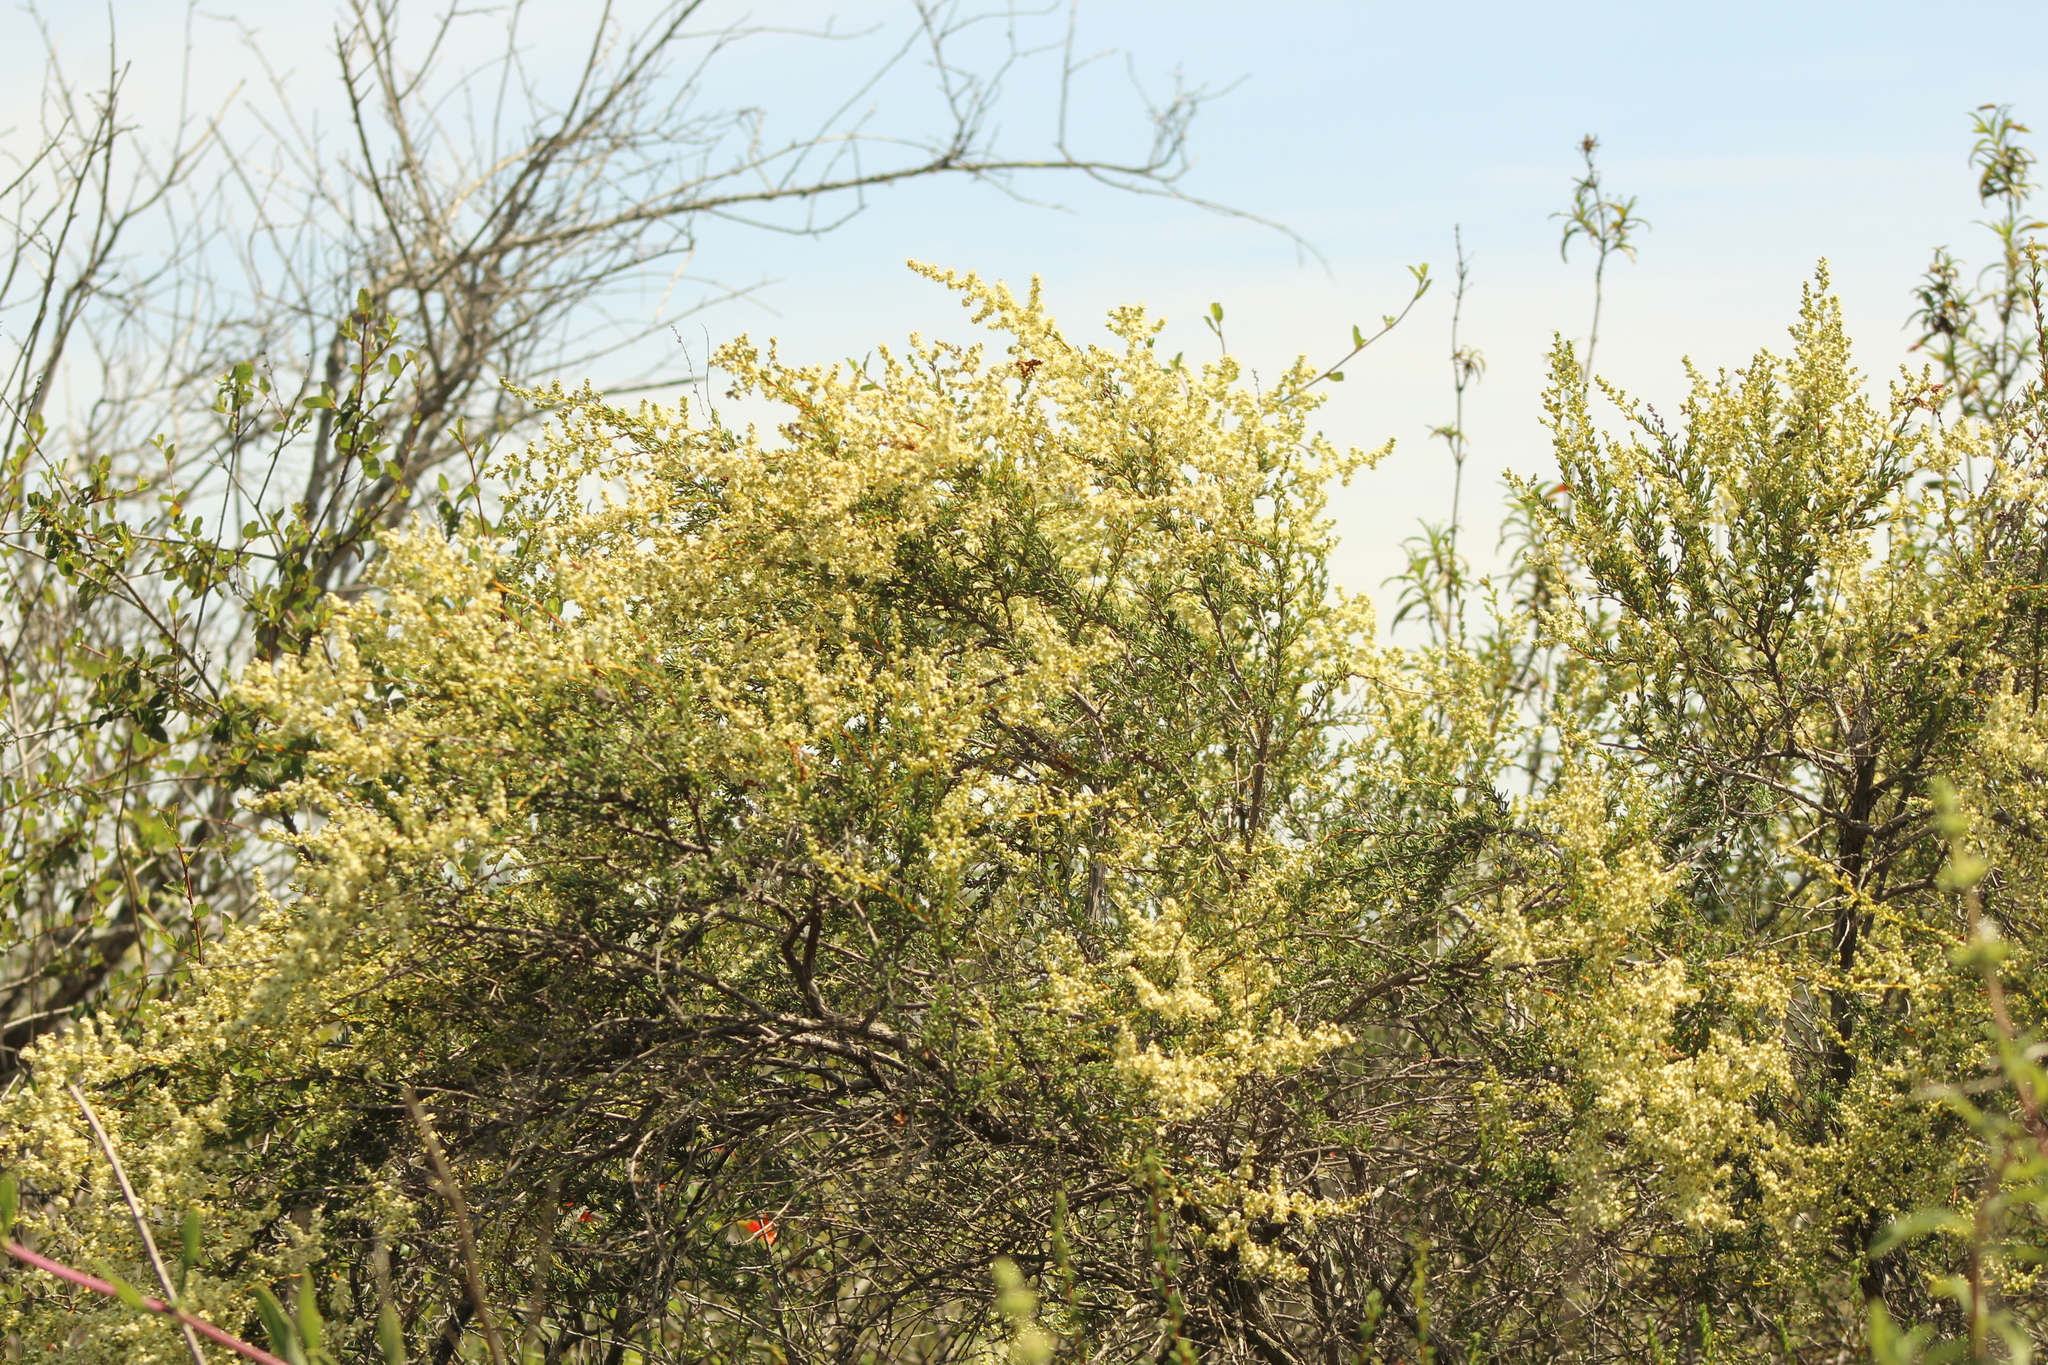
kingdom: Plantae
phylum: Tracheophyta
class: Magnoliopsida
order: Rosales
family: Rosaceae
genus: Adenostoma
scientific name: Adenostoma fasciculatum
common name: Chamise
